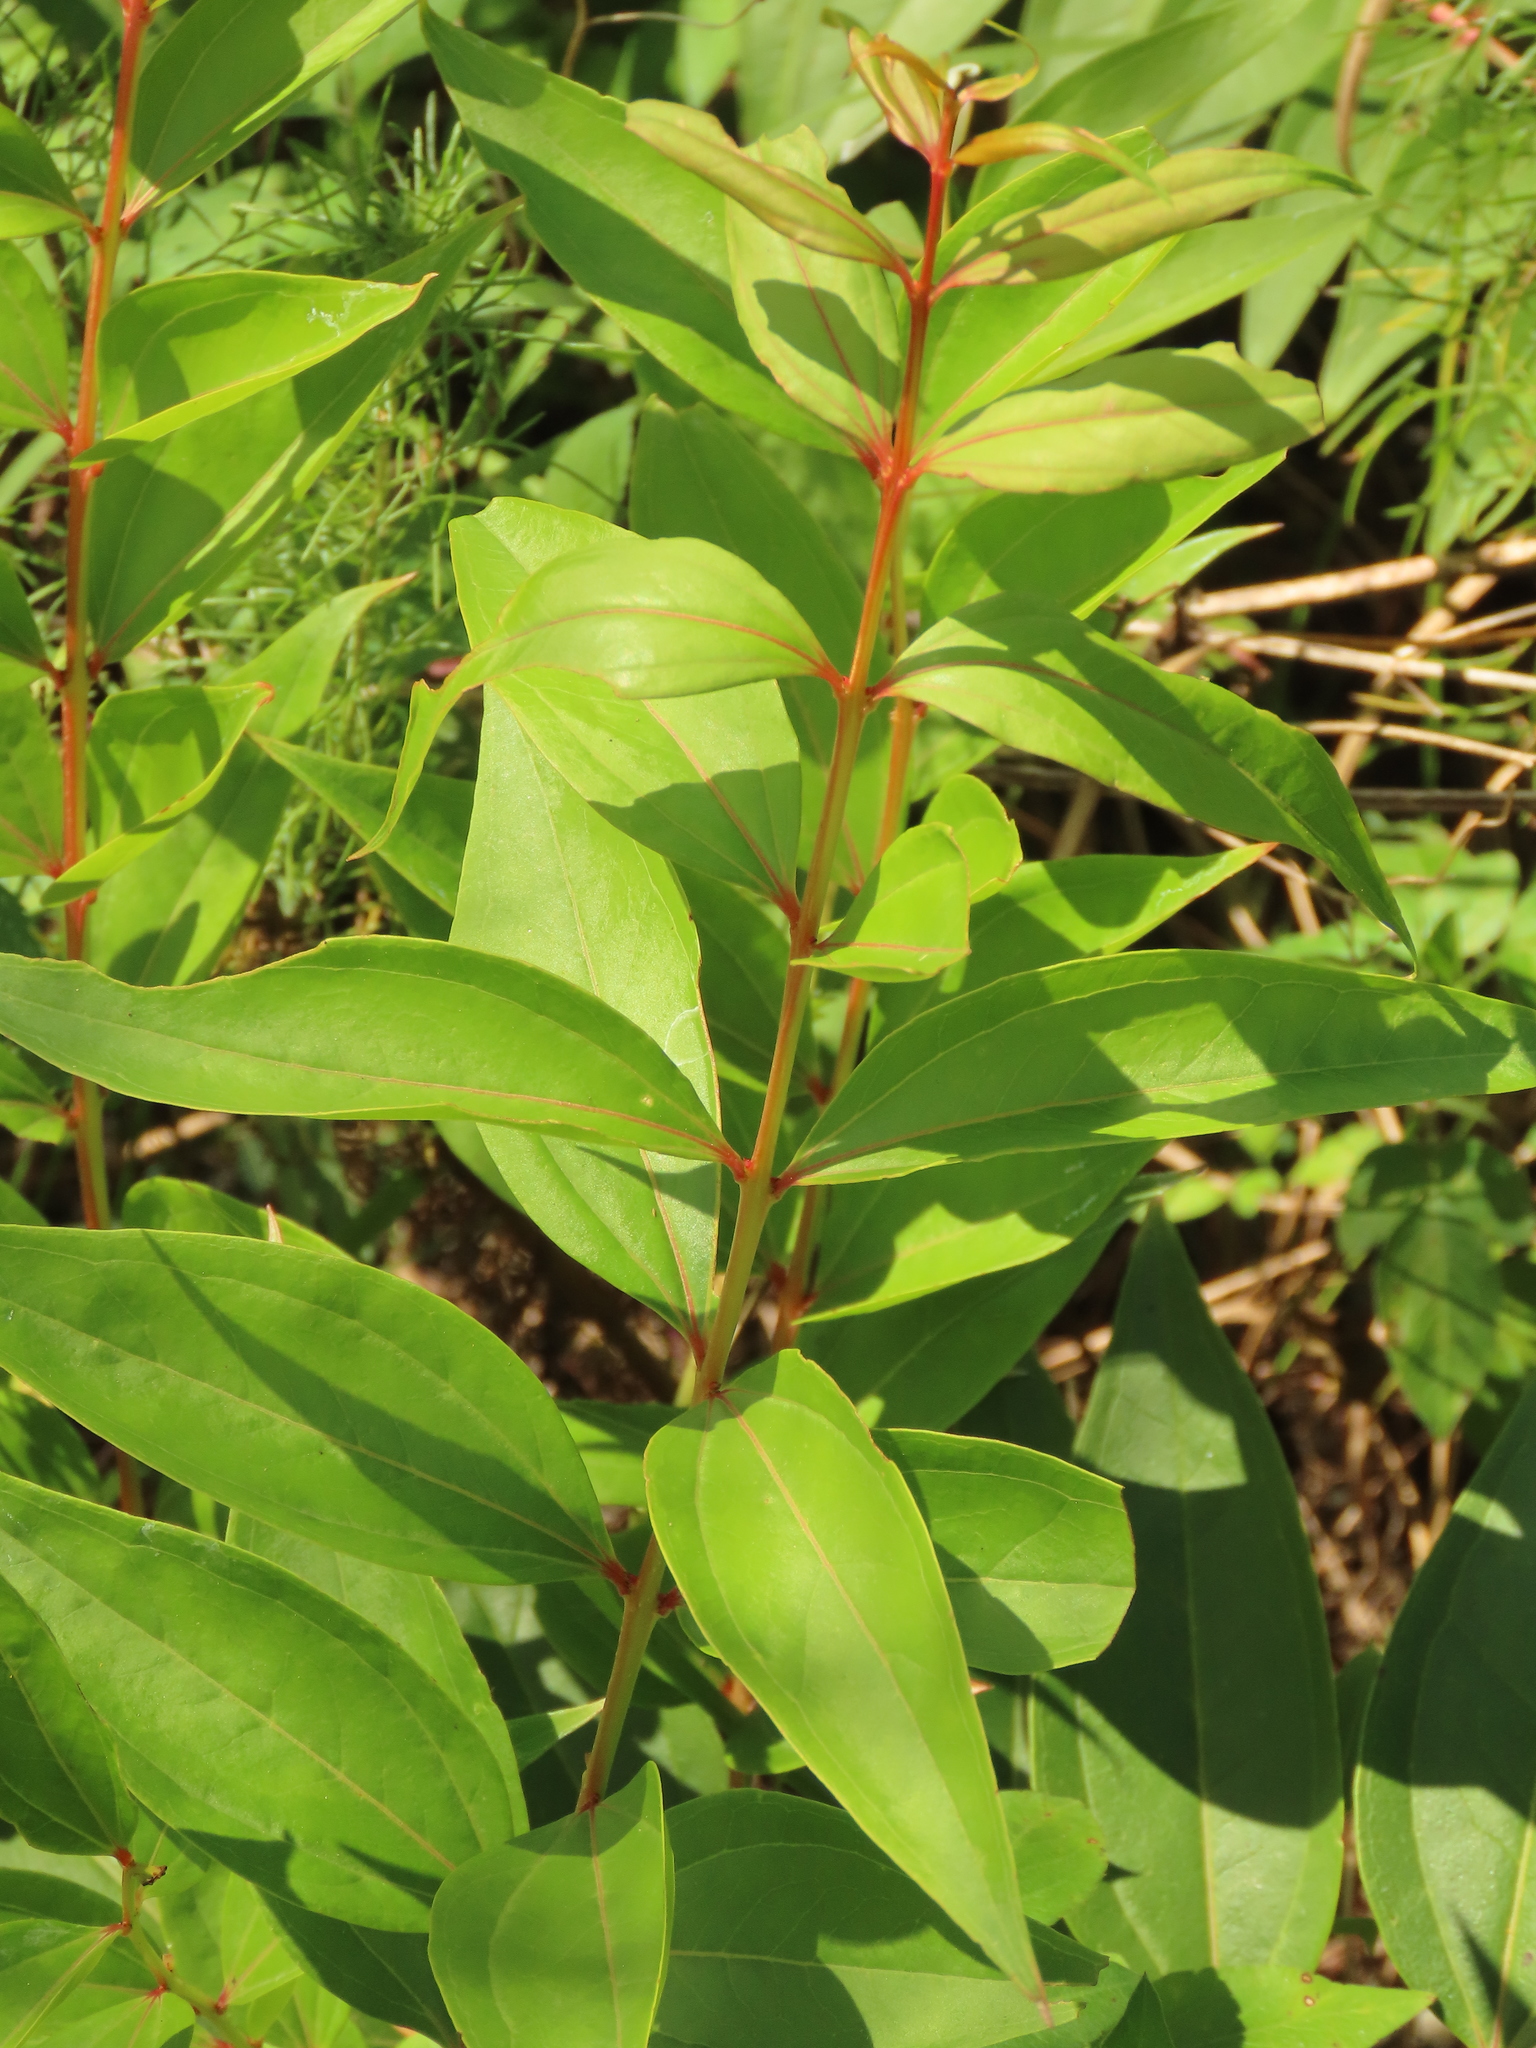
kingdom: Plantae
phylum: Tracheophyta
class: Magnoliopsida
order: Cucurbitales
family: Coriariaceae
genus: Coriaria
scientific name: Coriaria japonica
